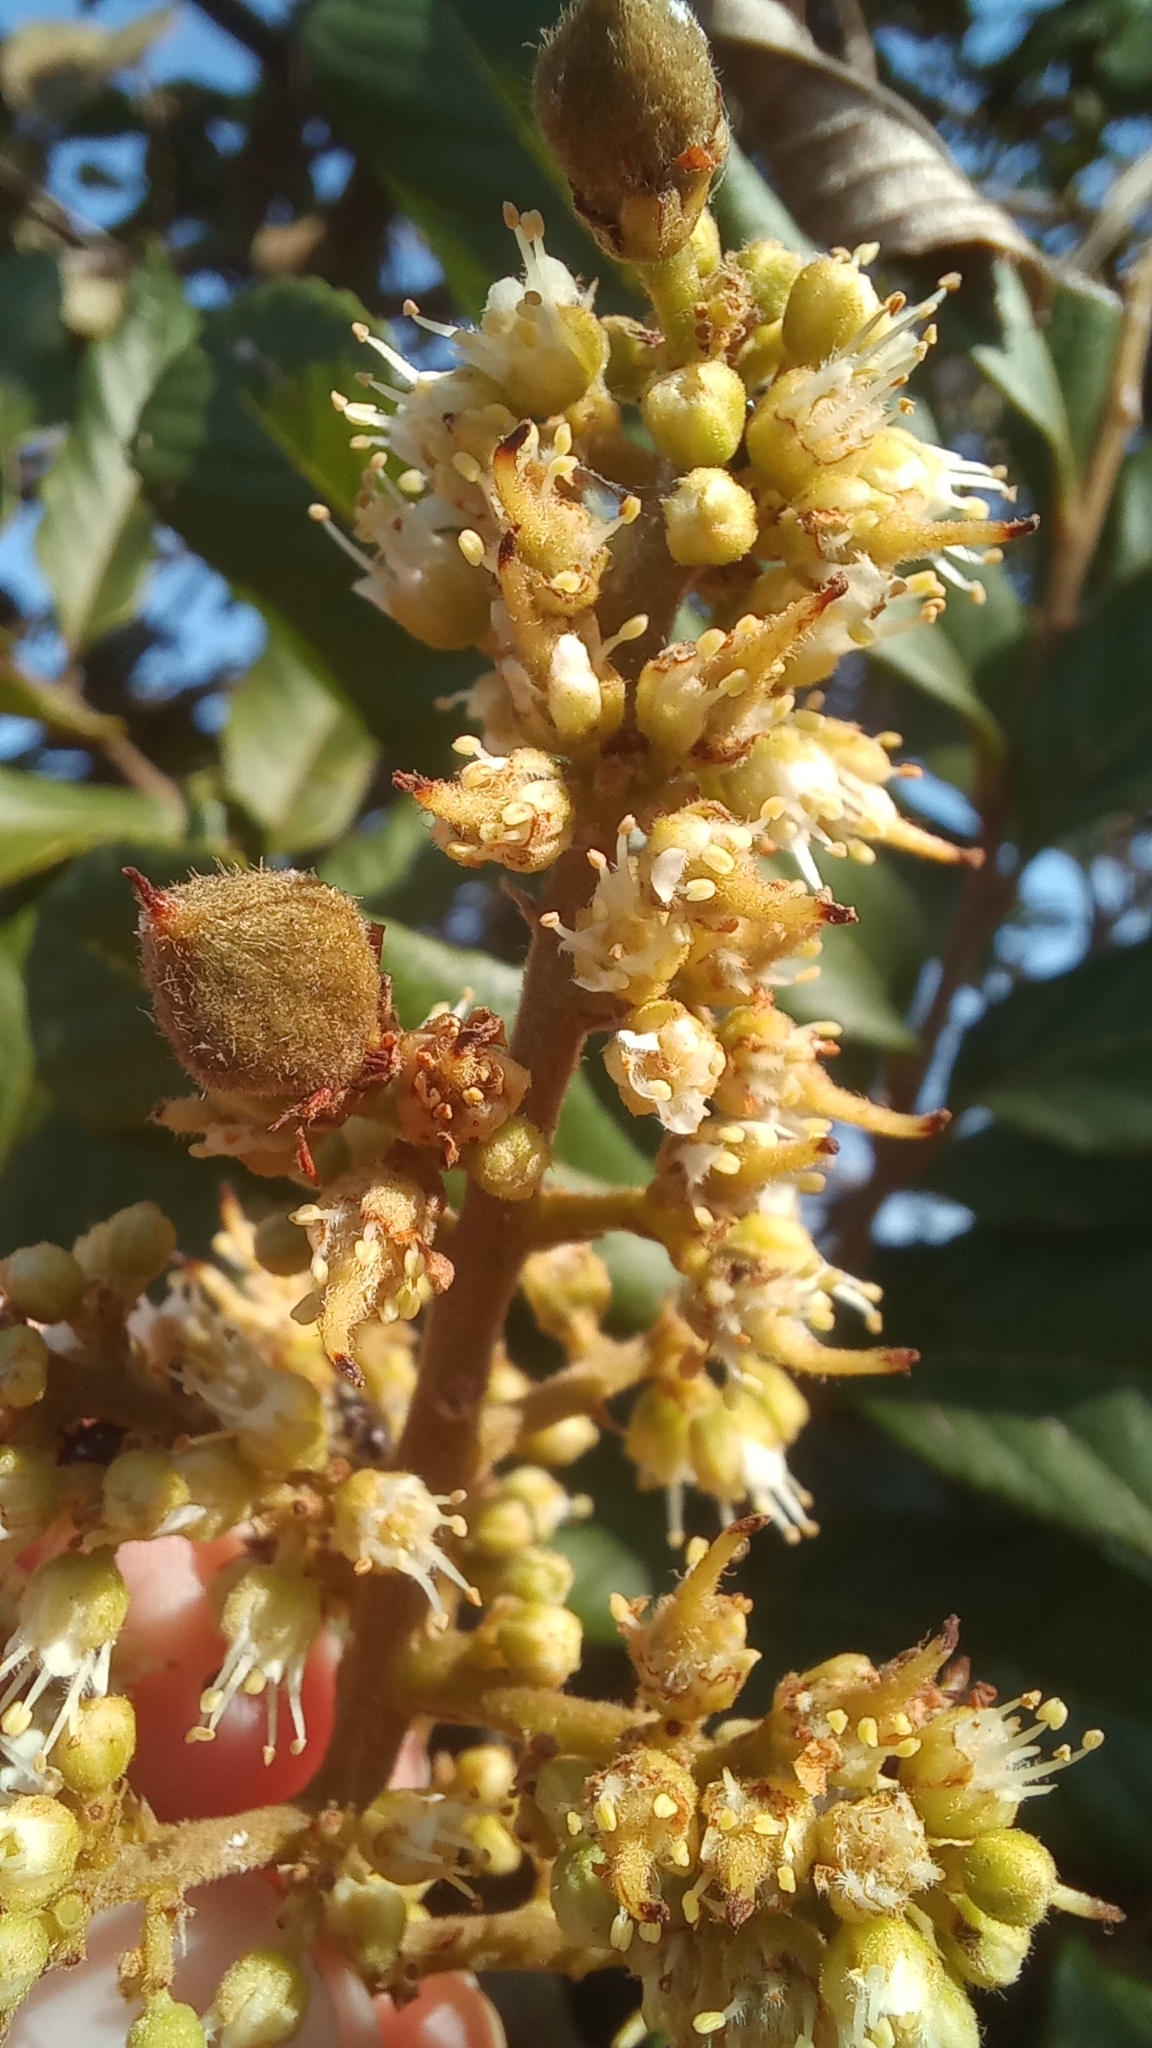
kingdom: Plantae
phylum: Tracheophyta
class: Magnoliopsida
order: Sapindales
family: Sapindaceae
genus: Cupania
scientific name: Cupania vernalis
